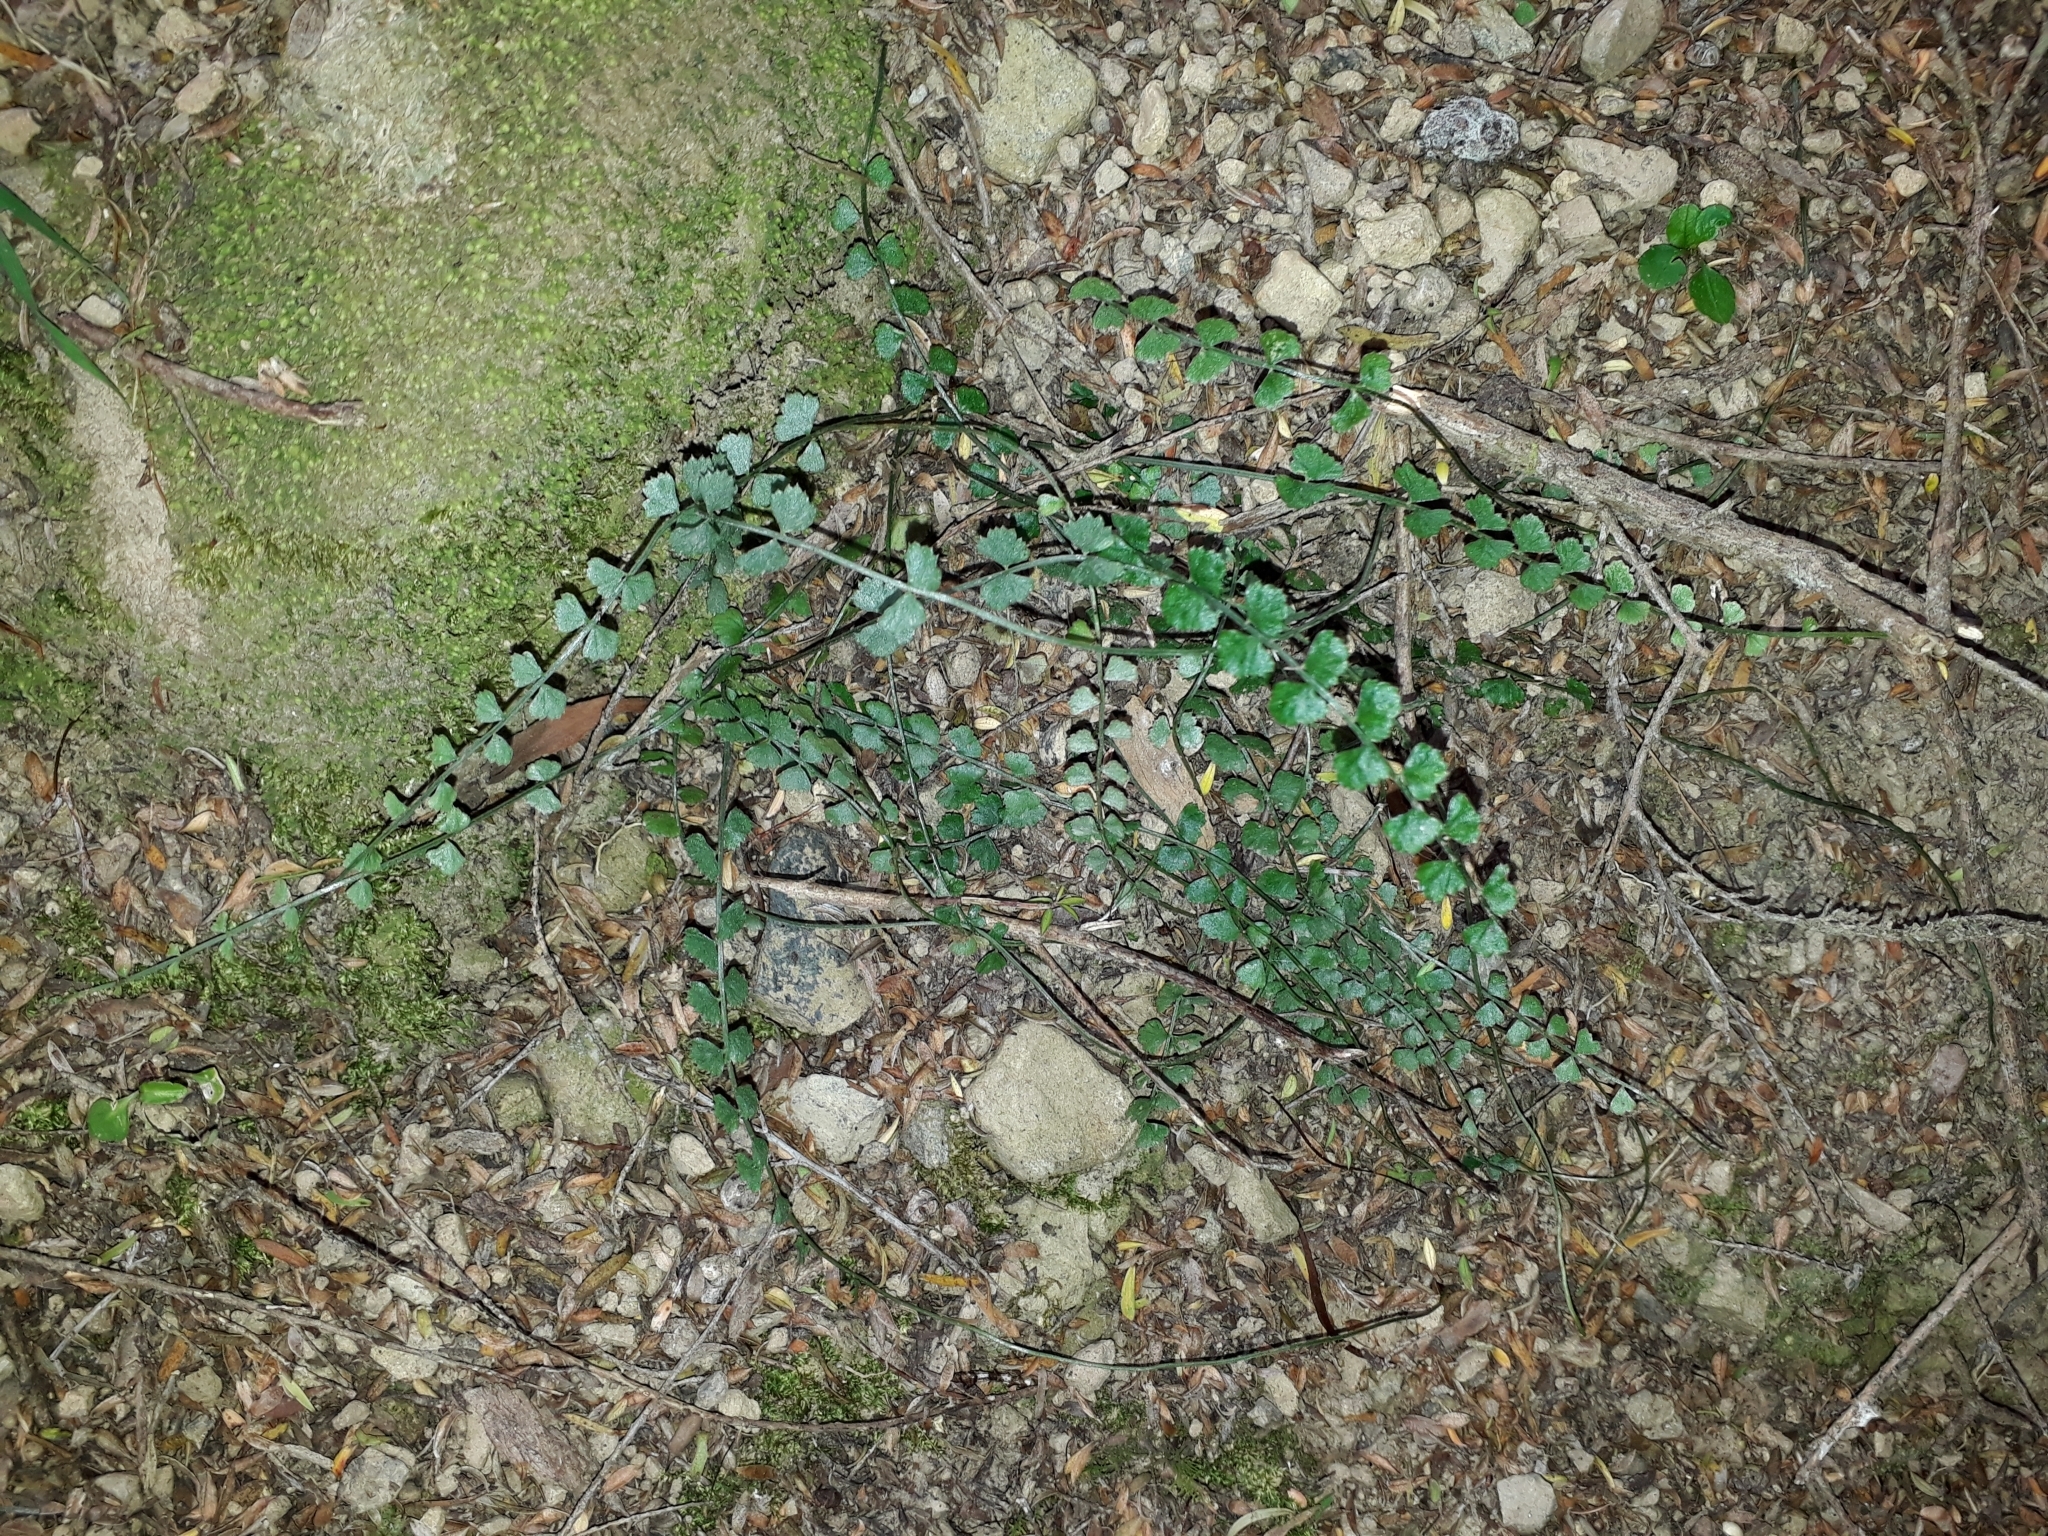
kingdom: Plantae
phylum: Tracheophyta
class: Polypodiopsida
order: Polypodiales
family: Aspleniaceae
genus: Asplenium
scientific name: Asplenium flabellifolium
